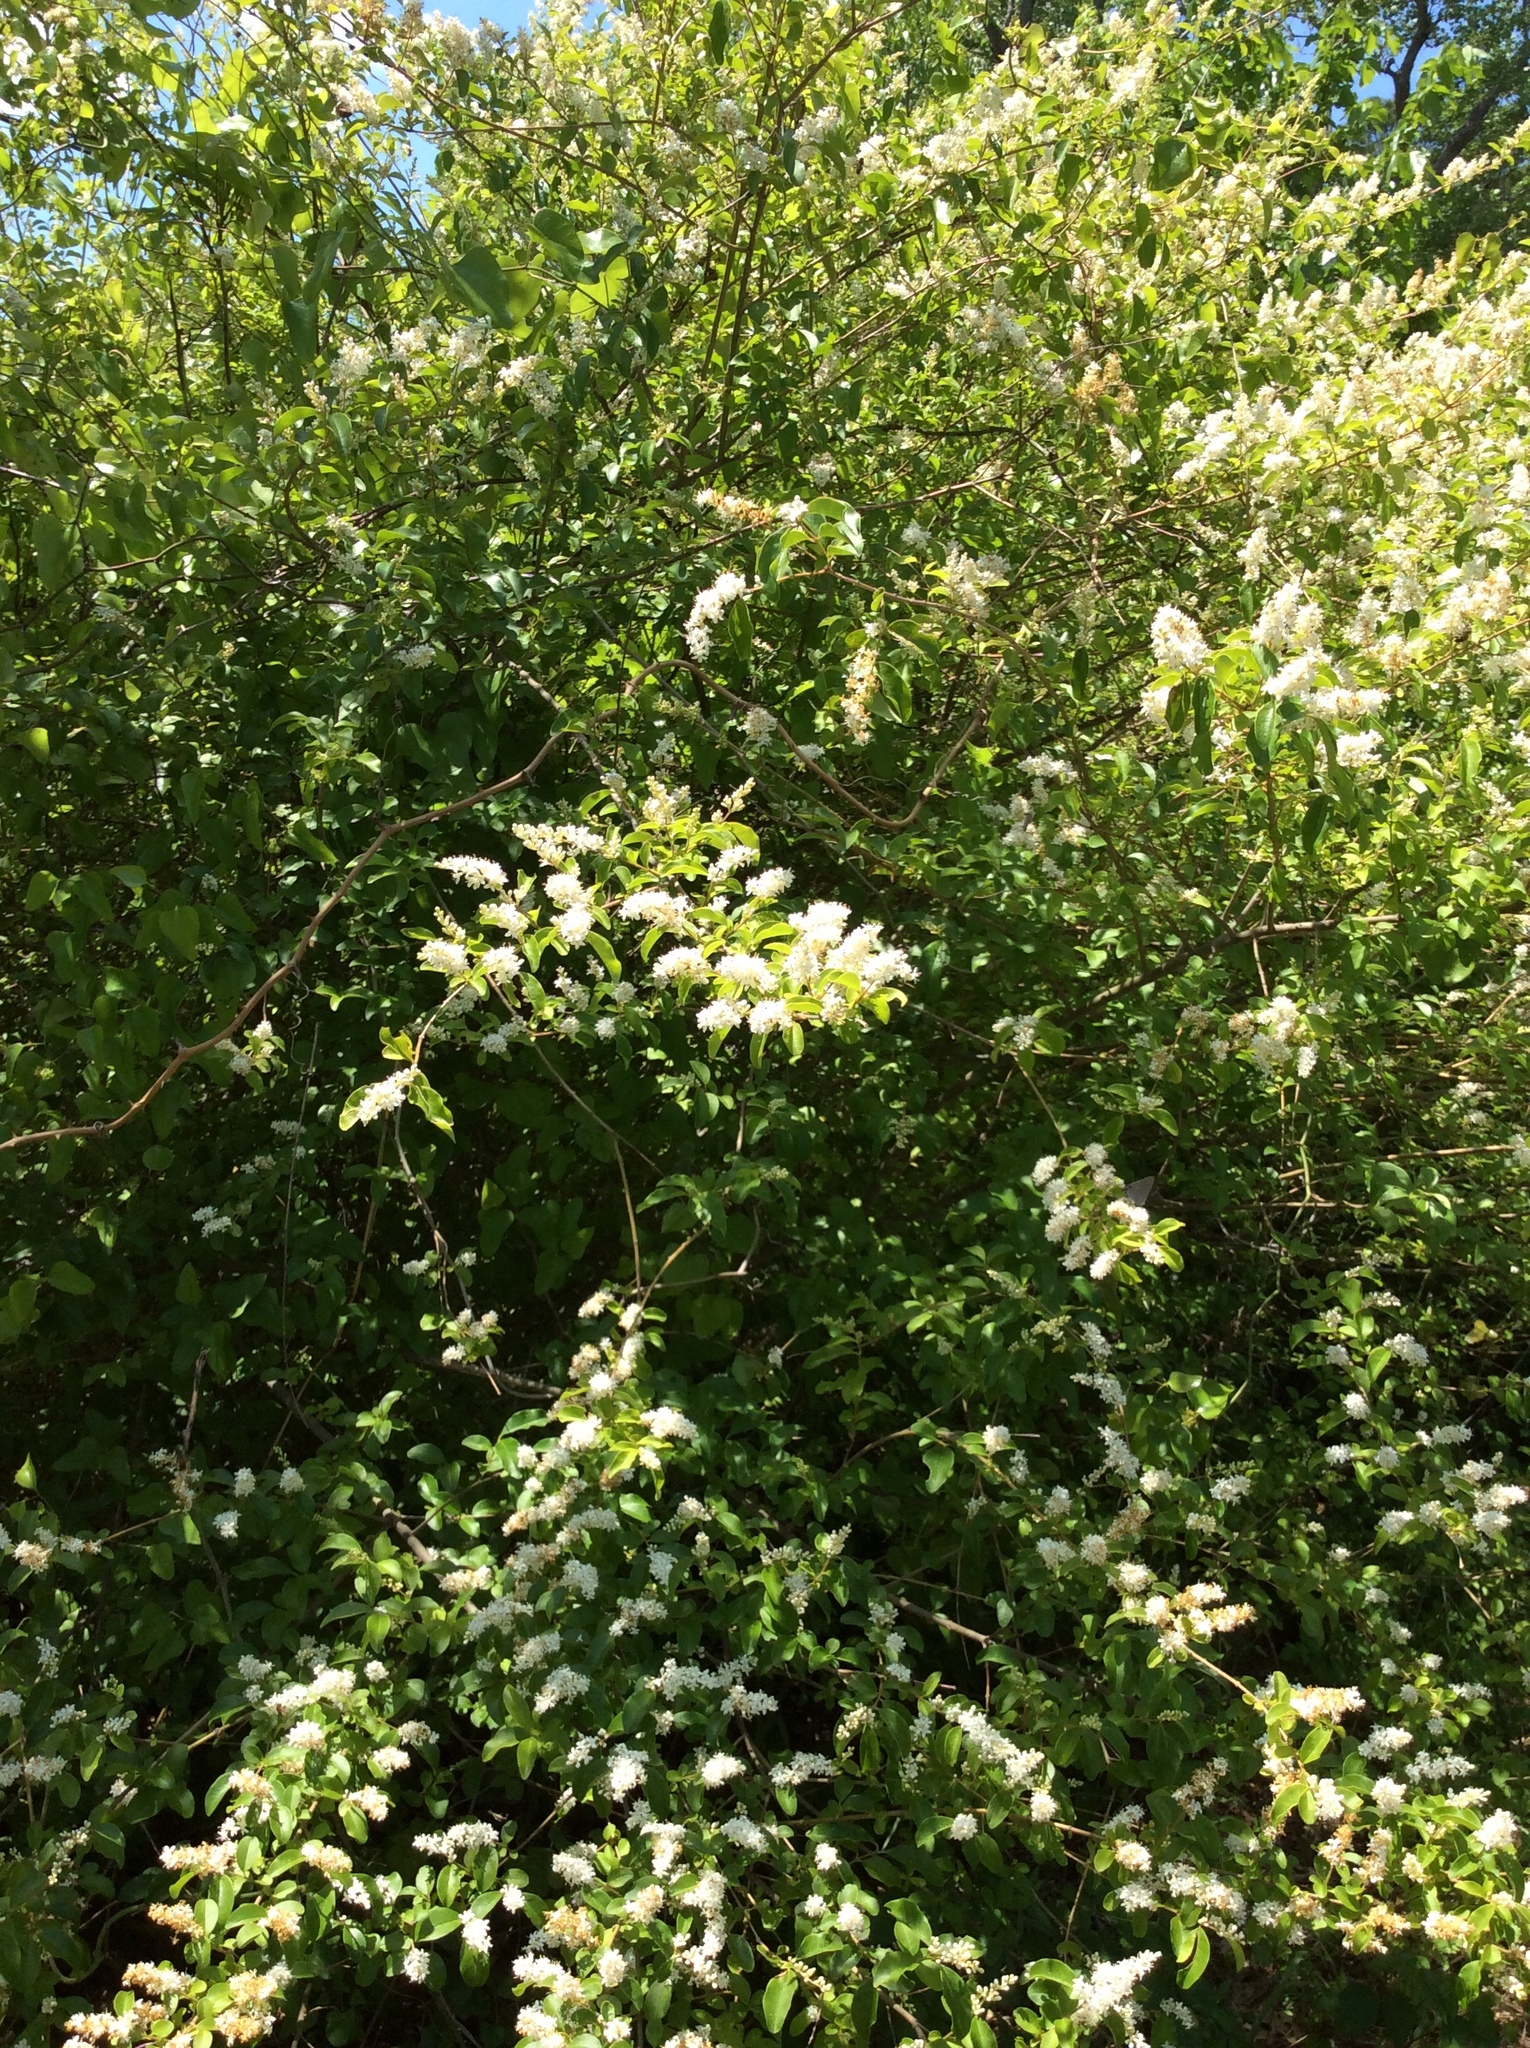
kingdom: Plantae
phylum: Tracheophyta
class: Magnoliopsida
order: Lamiales
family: Oleaceae
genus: Ligustrum
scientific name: Ligustrum sinense
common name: Chinese privet
